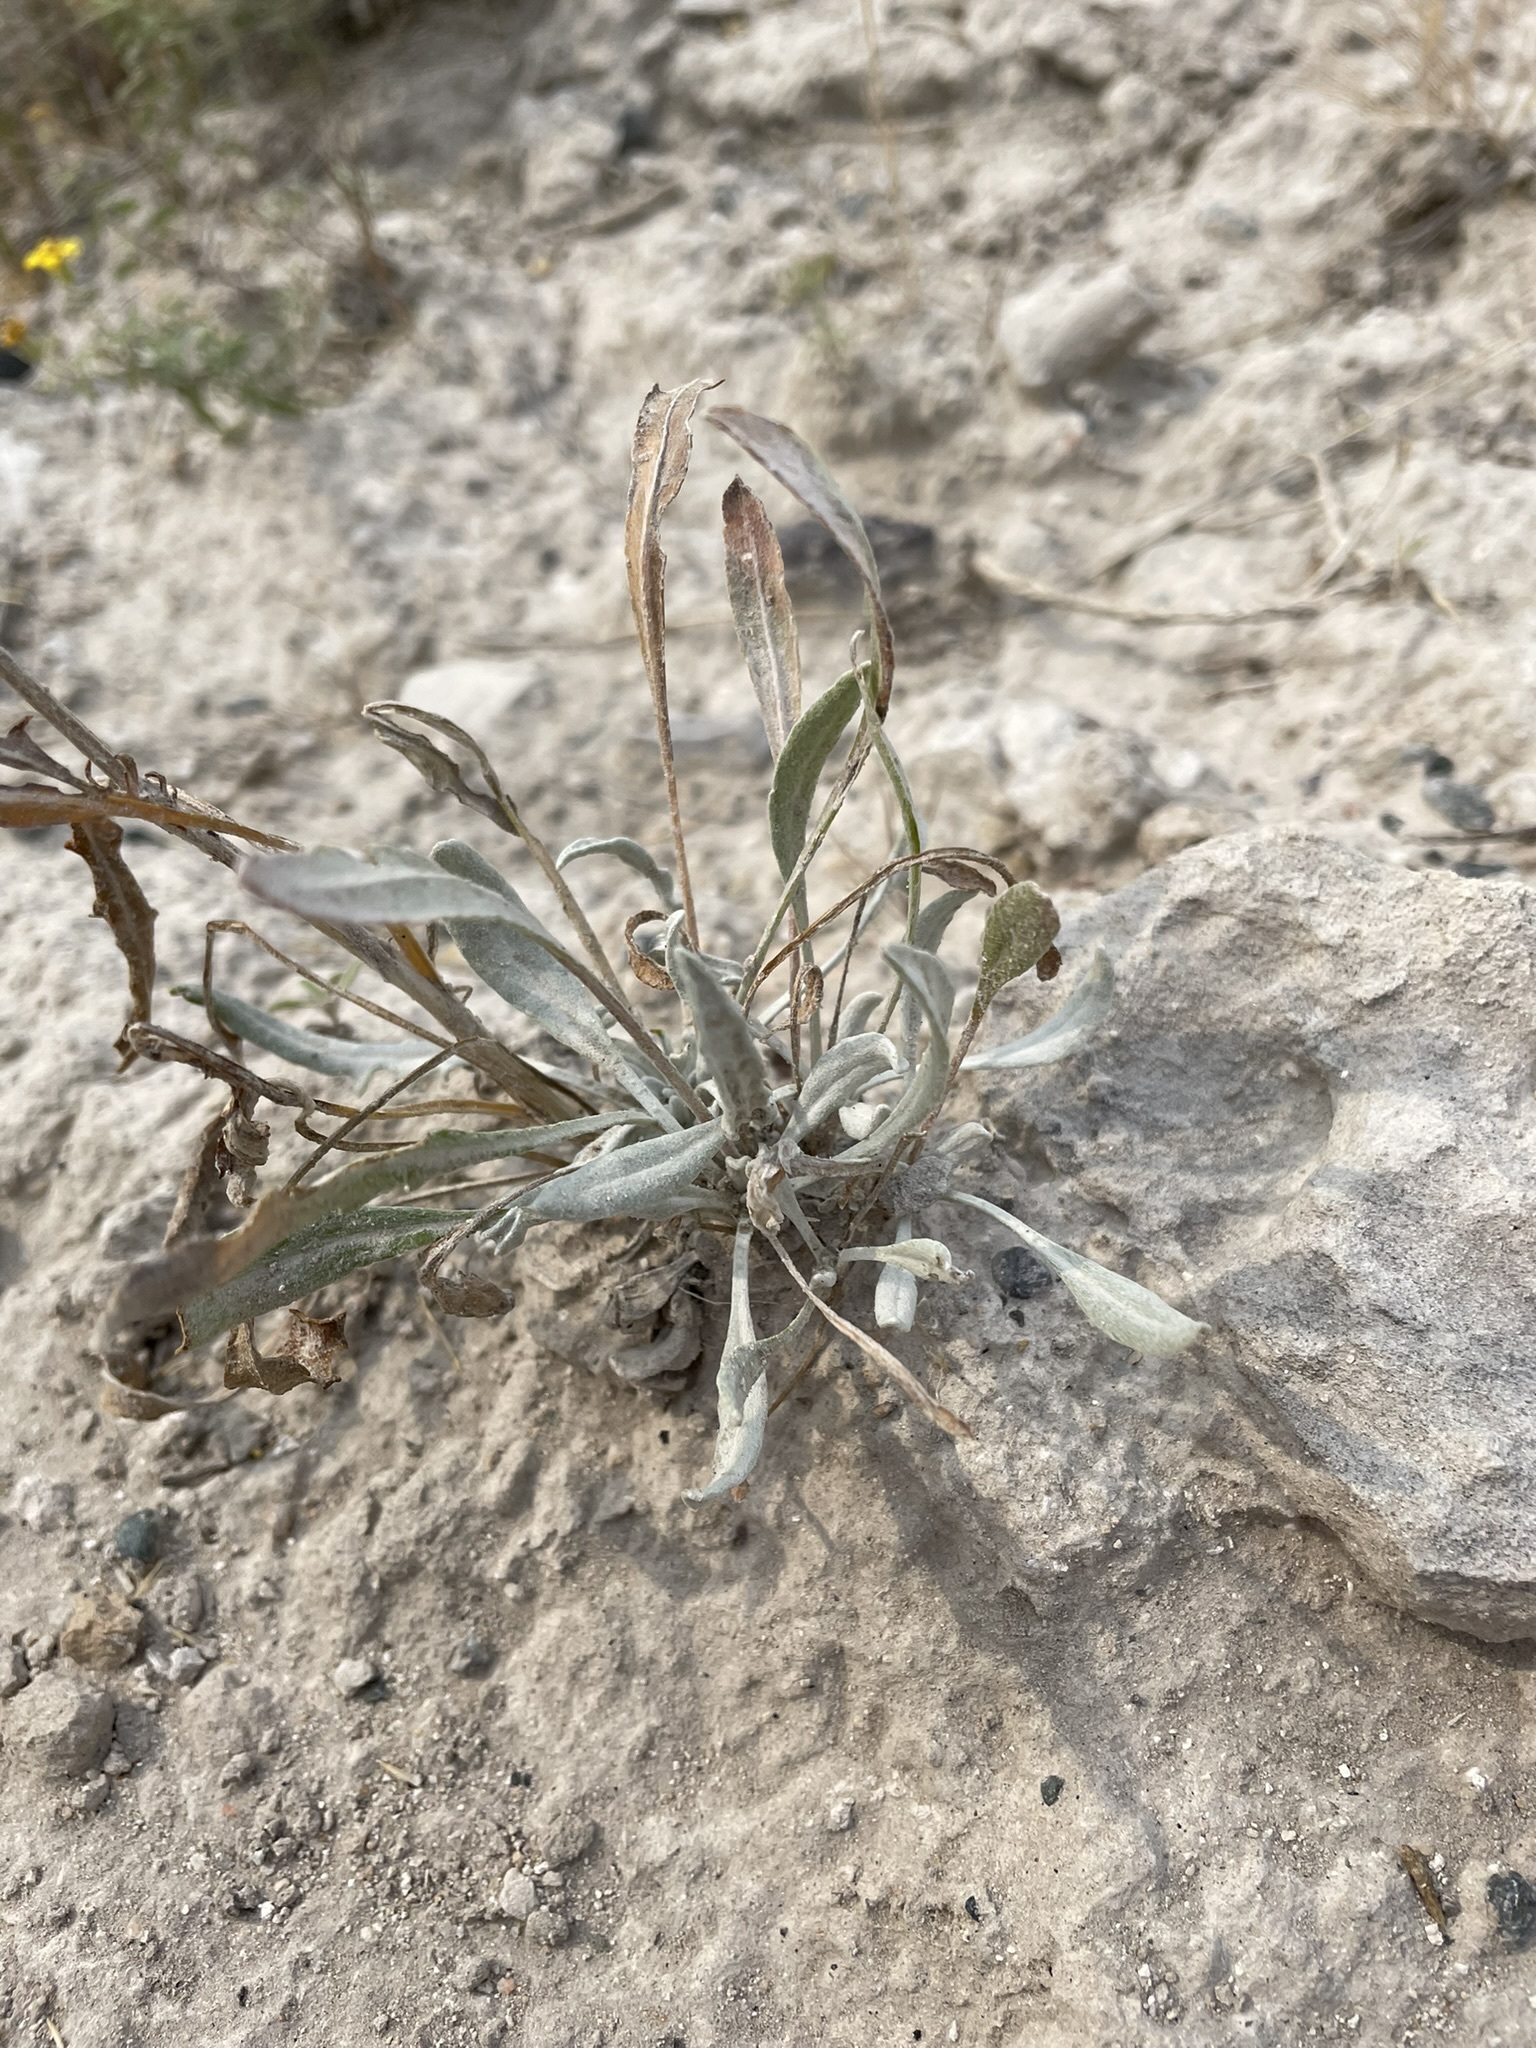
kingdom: Plantae
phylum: Tracheophyta
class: Magnoliopsida
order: Asterales
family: Asteraceae
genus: Packera
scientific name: Packera cana
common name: Woolly groundsel
